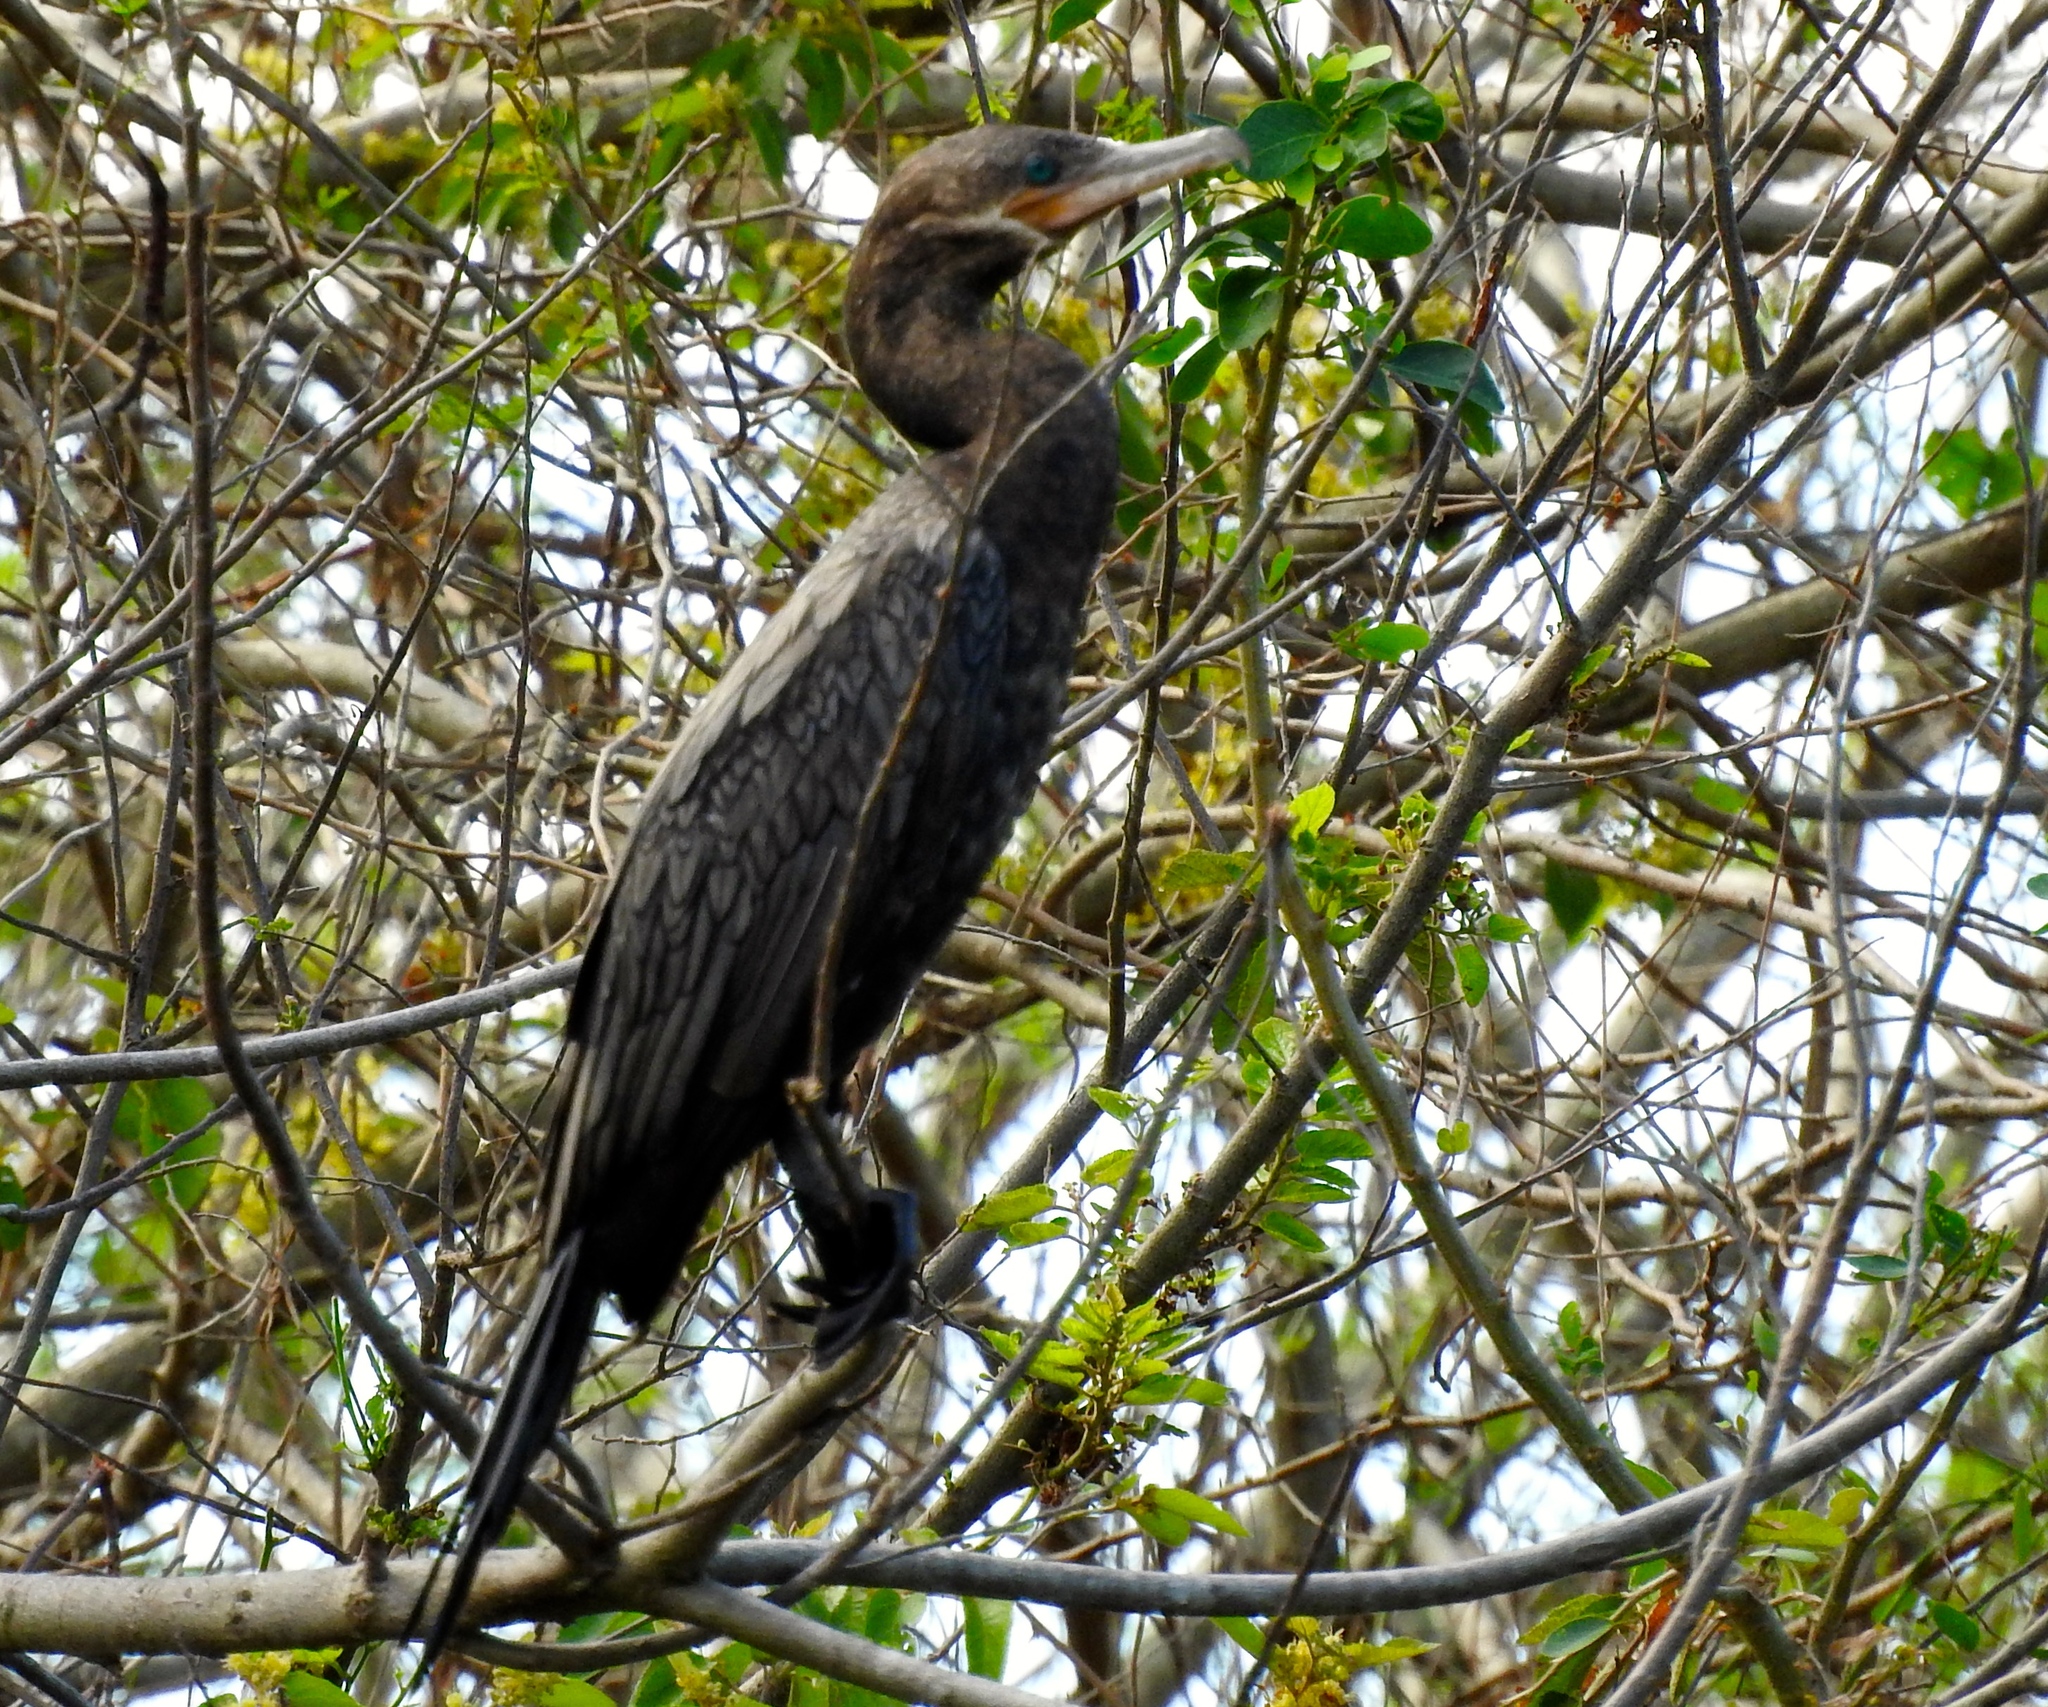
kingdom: Animalia
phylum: Chordata
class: Aves
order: Suliformes
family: Phalacrocoracidae
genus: Phalacrocorax
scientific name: Phalacrocorax brasilianus
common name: Neotropic cormorant
